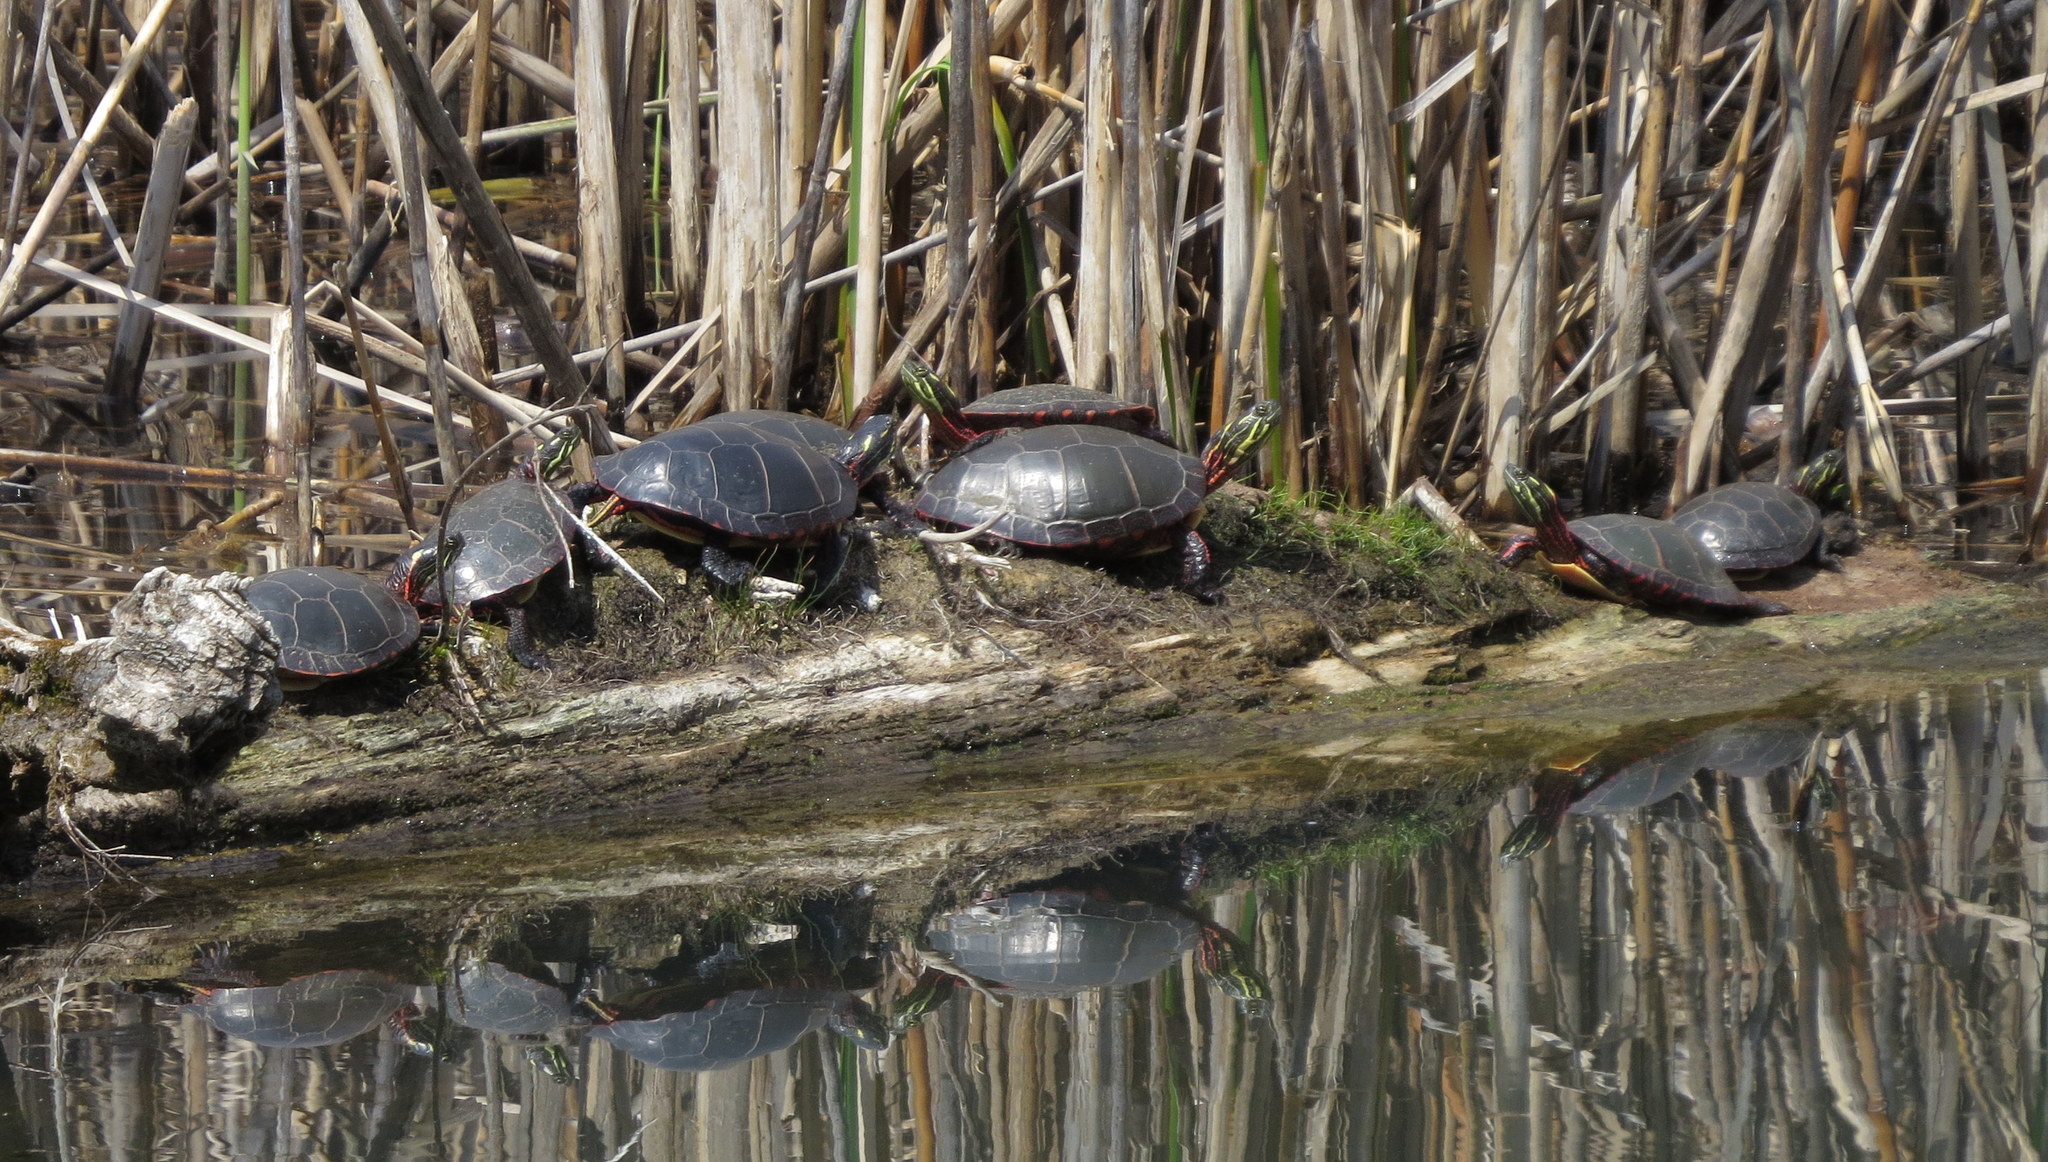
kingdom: Animalia
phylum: Chordata
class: Testudines
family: Emydidae
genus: Chrysemys
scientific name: Chrysemys picta
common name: Painted turtle
